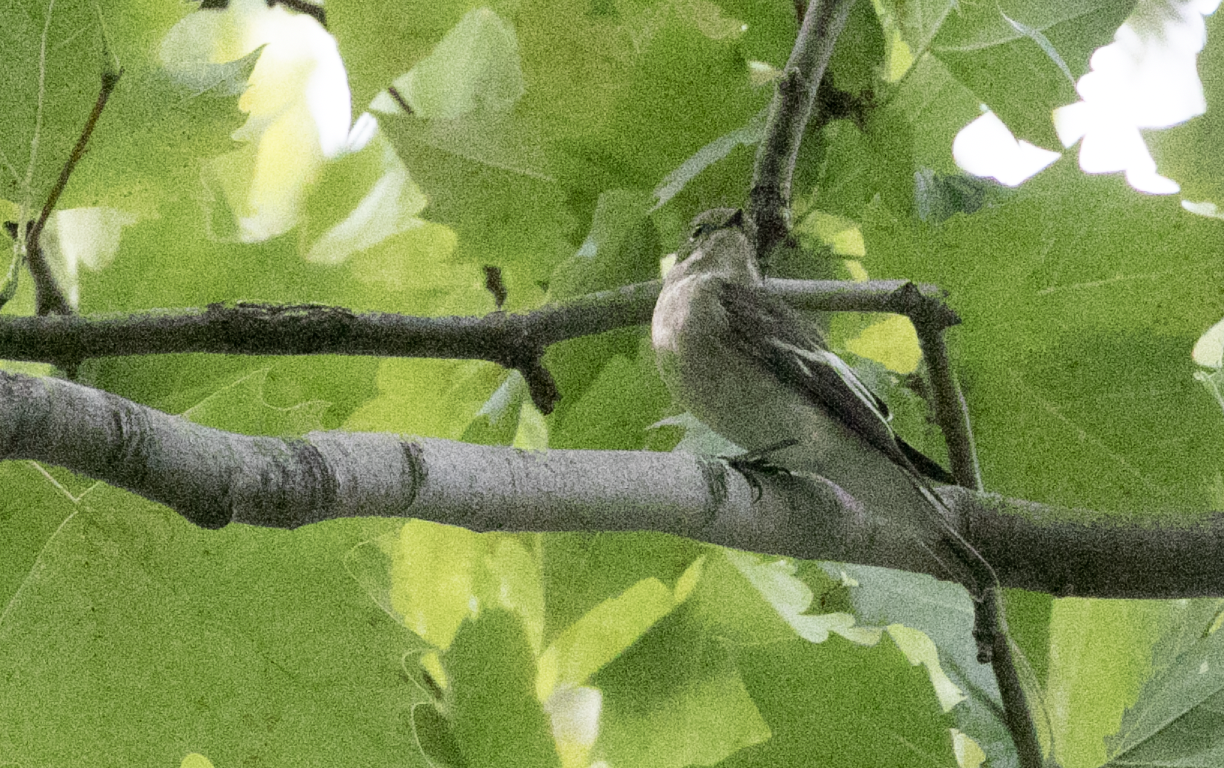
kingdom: Animalia
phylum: Chordata
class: Aves
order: Passeriformes
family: Muscicapidae
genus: Ficedula
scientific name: Ficedula hypoleuca
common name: European pied flycatcher
